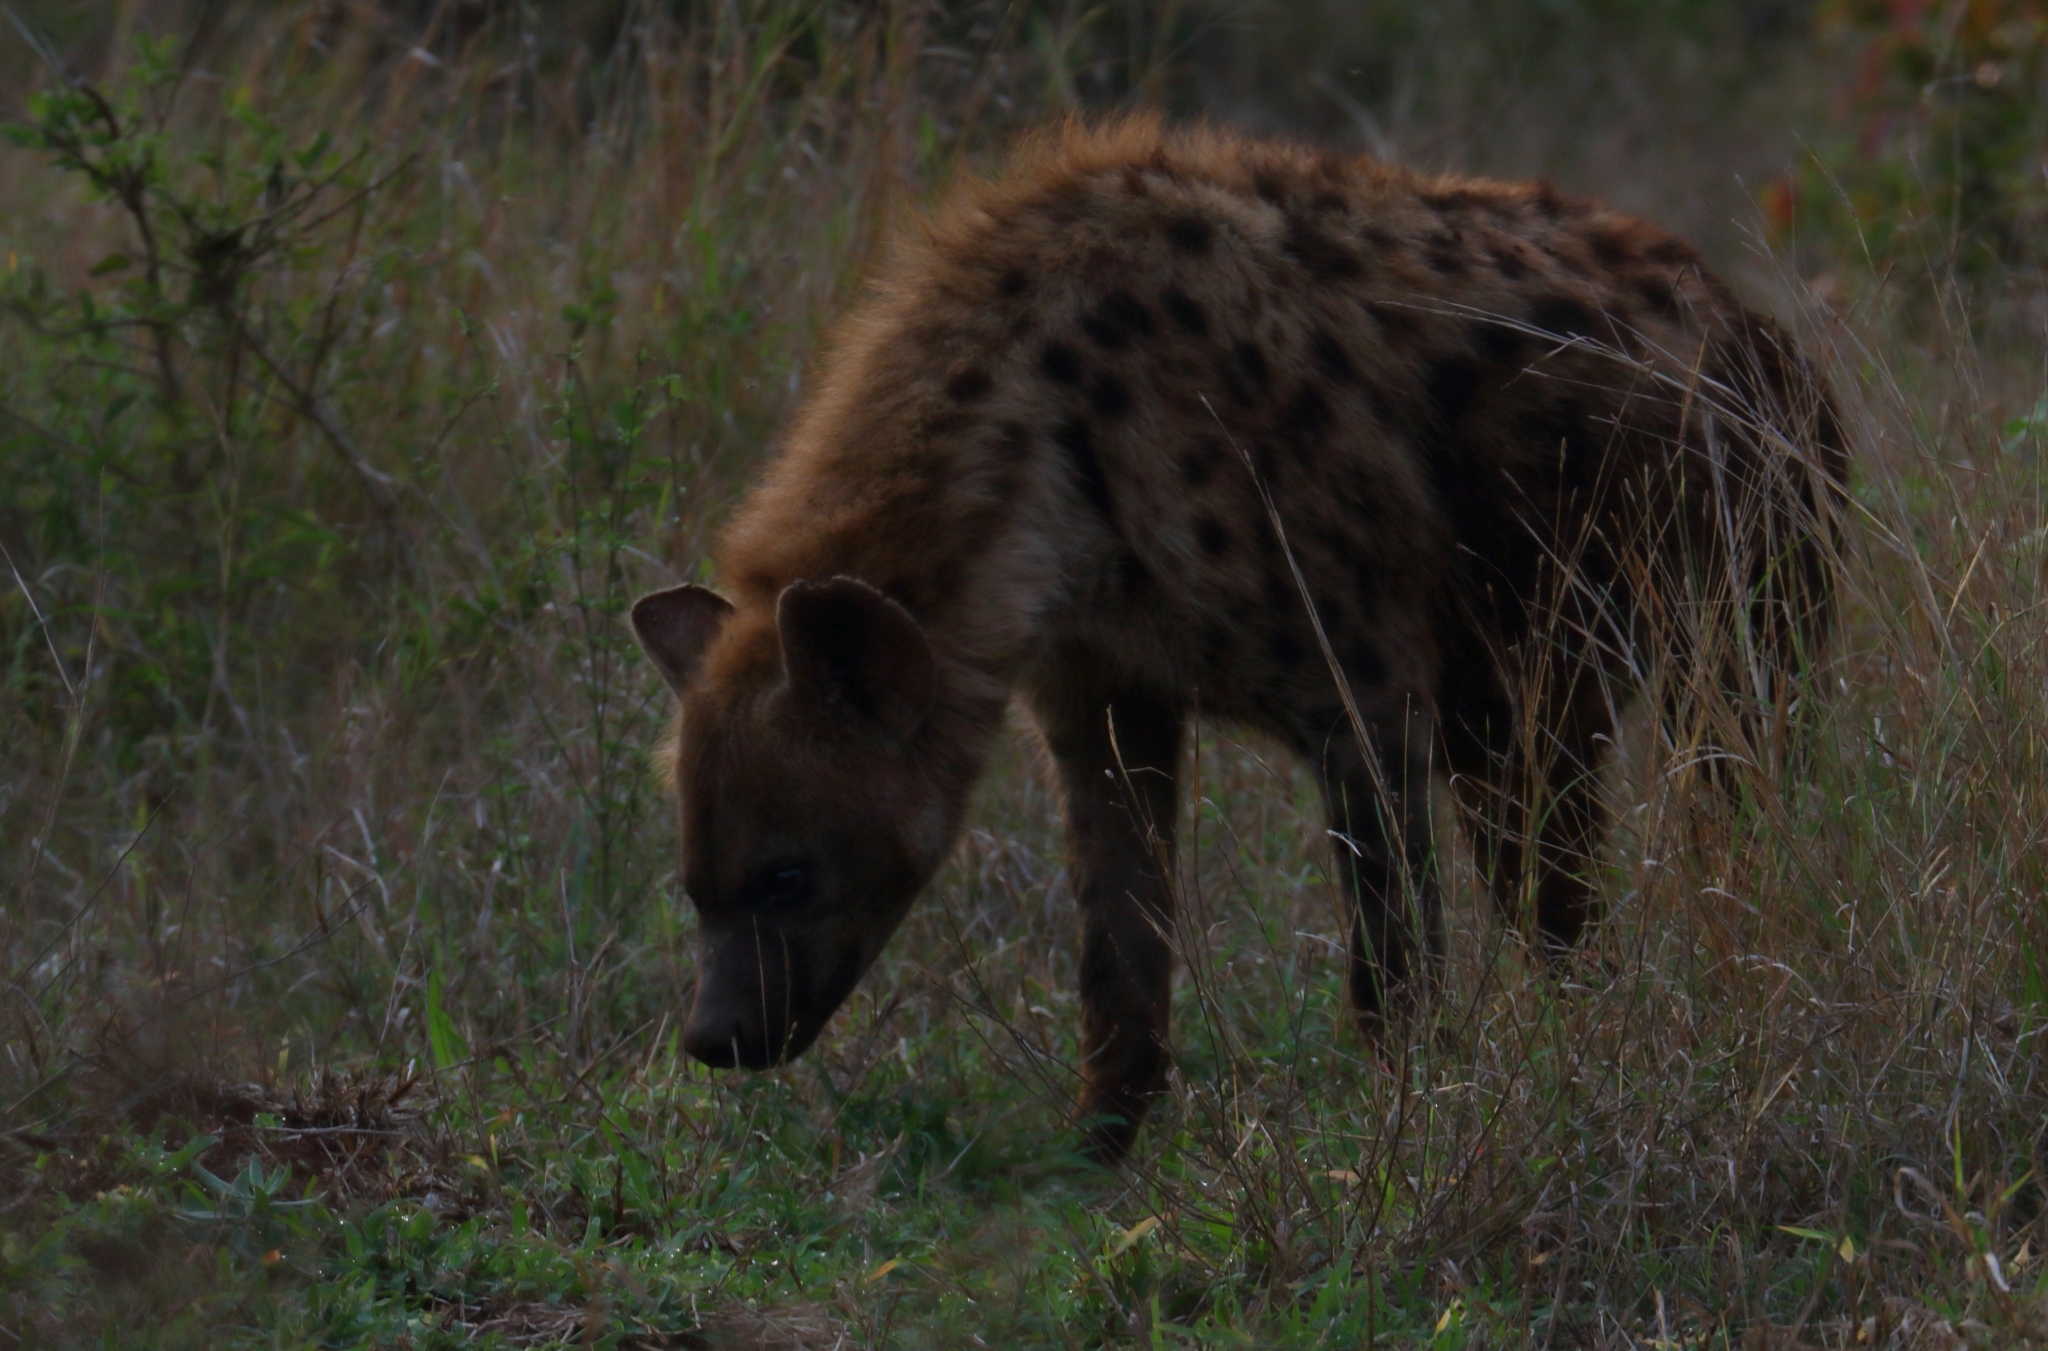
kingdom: Animalia
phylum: Chordata
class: Mammalia
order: Carnivora
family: Hyaenidae
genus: Crocuta
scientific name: Crocuta crocuta
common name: Spotted hyaena
